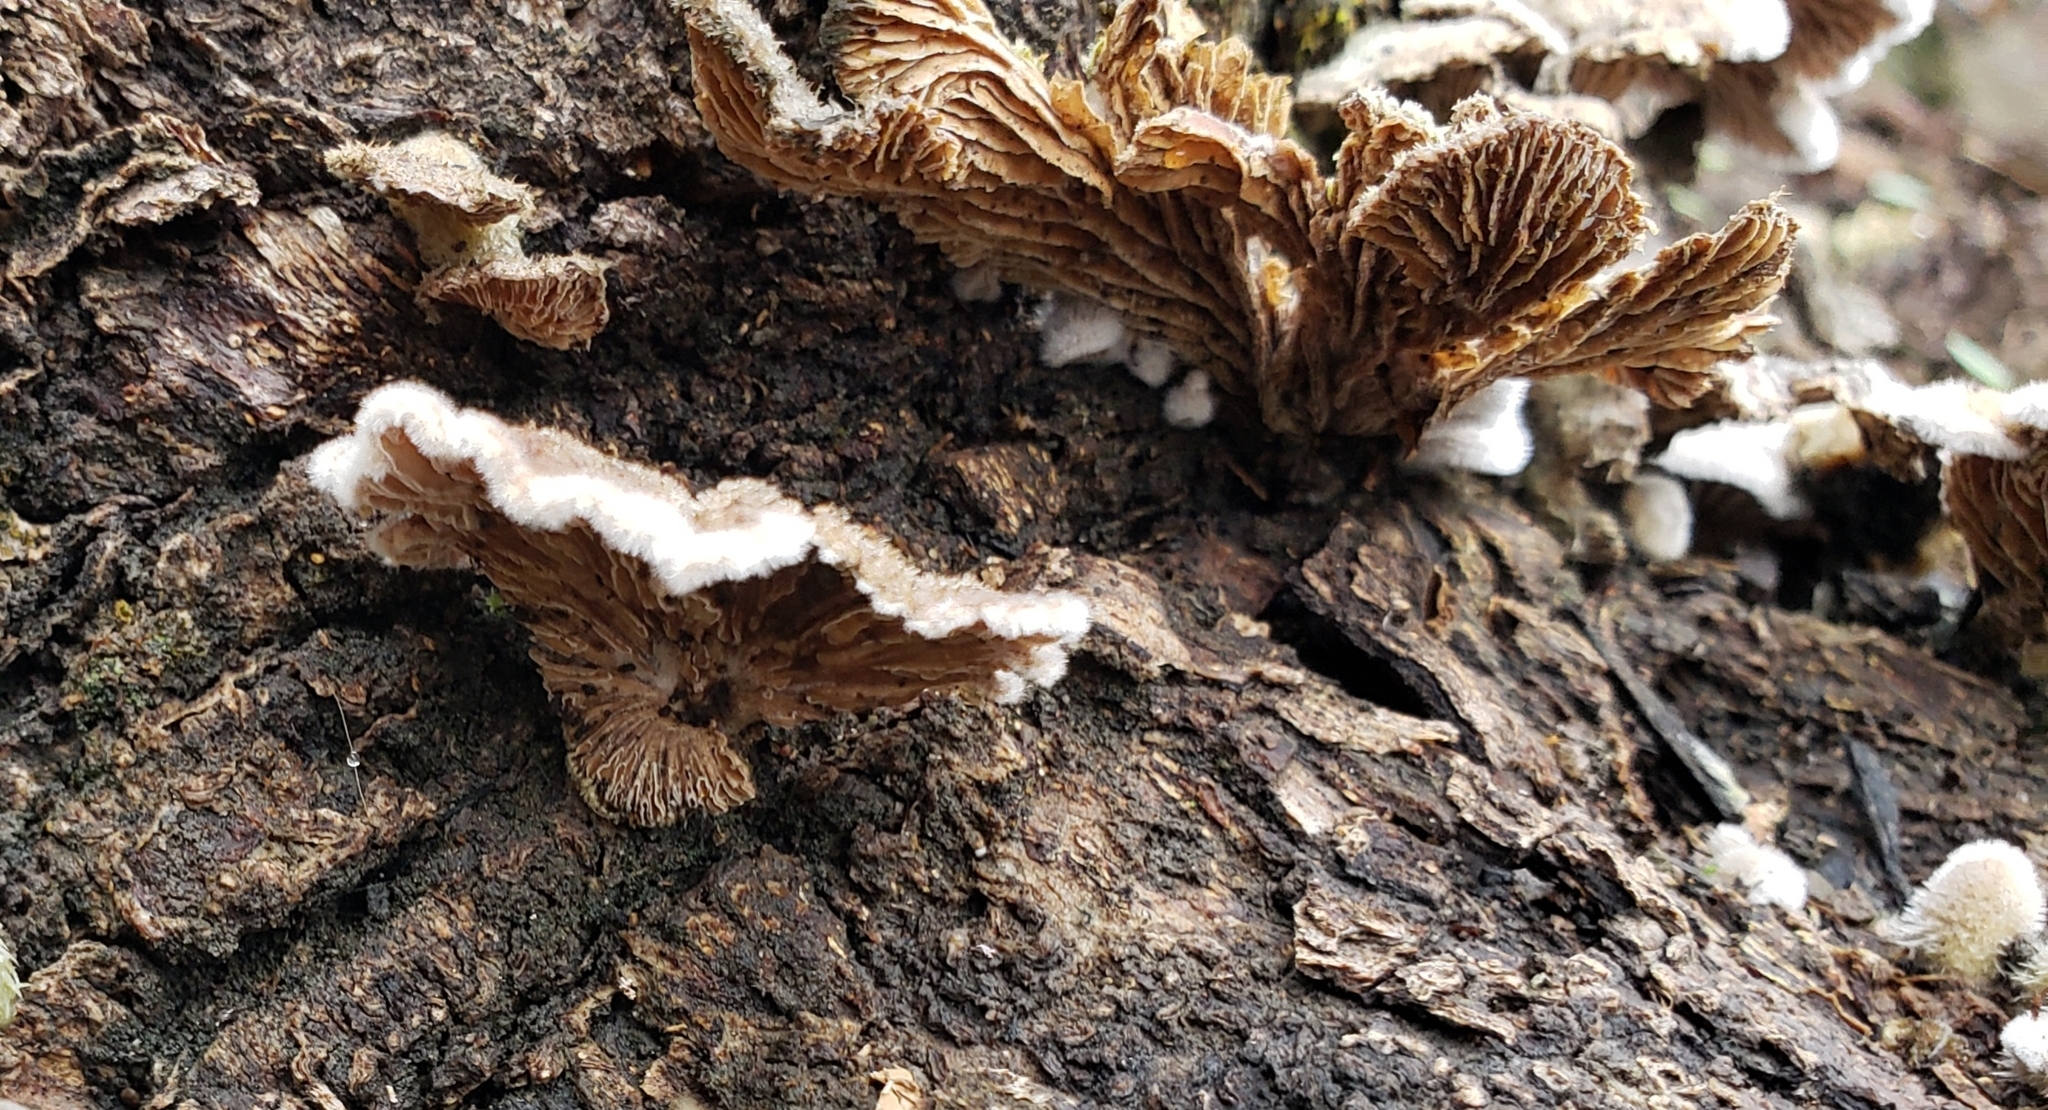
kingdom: Fungi
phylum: Basidiomycota
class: Agaricomycetes
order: Agaricales
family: Schizophyllaceae
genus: Schizophyllum
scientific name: Schizophyllum commune
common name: Common porecrust
